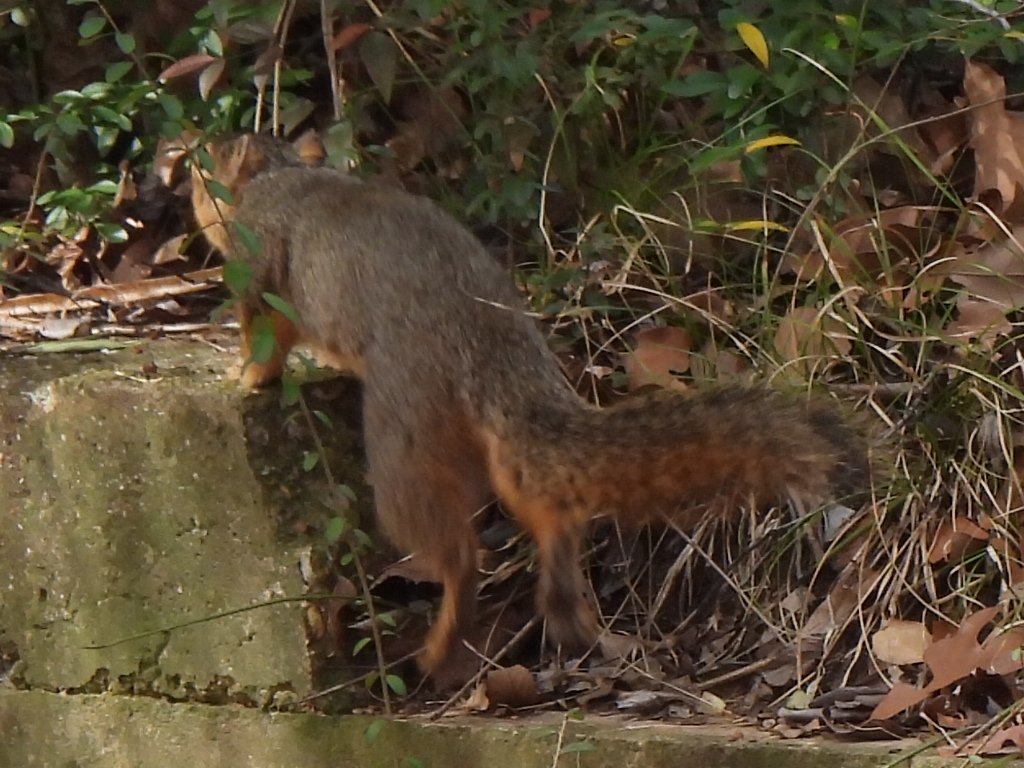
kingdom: Animalia
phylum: Chordata
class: Mammalia
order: Rodentia
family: Sciuridae
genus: Sciurus
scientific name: Sciurus niger
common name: Fox squirrel
